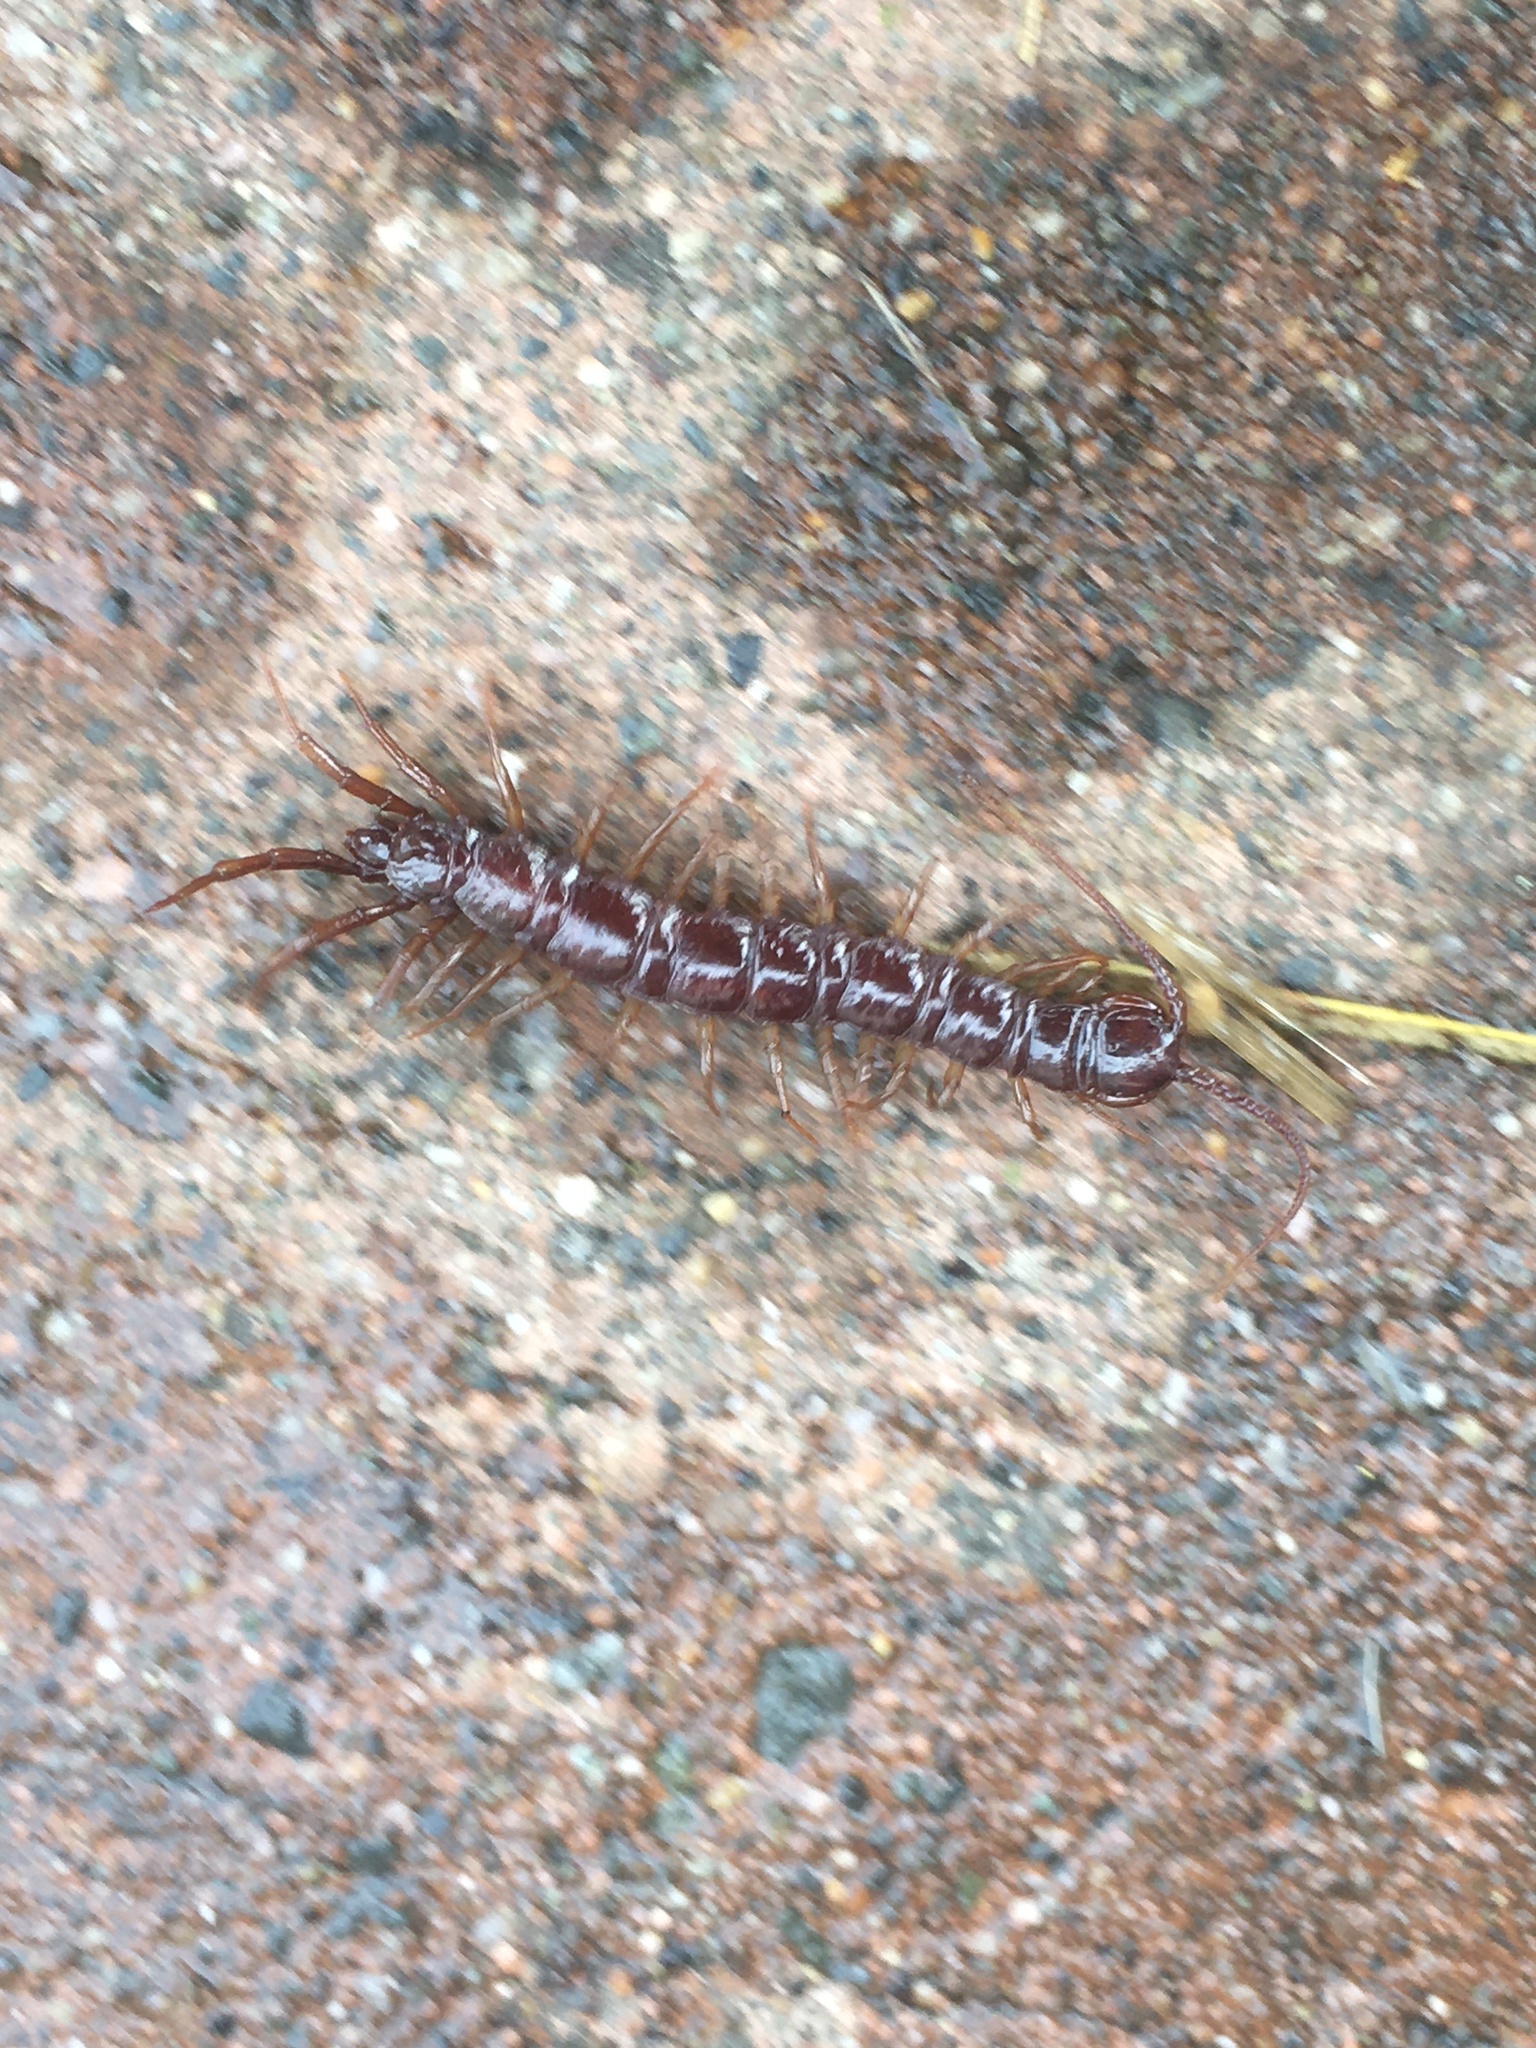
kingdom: Animalia
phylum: Arthropoda
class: Chilopoda
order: Lithobiomorpha
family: Lithobiidae
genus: Lithobius
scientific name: Lithobius
